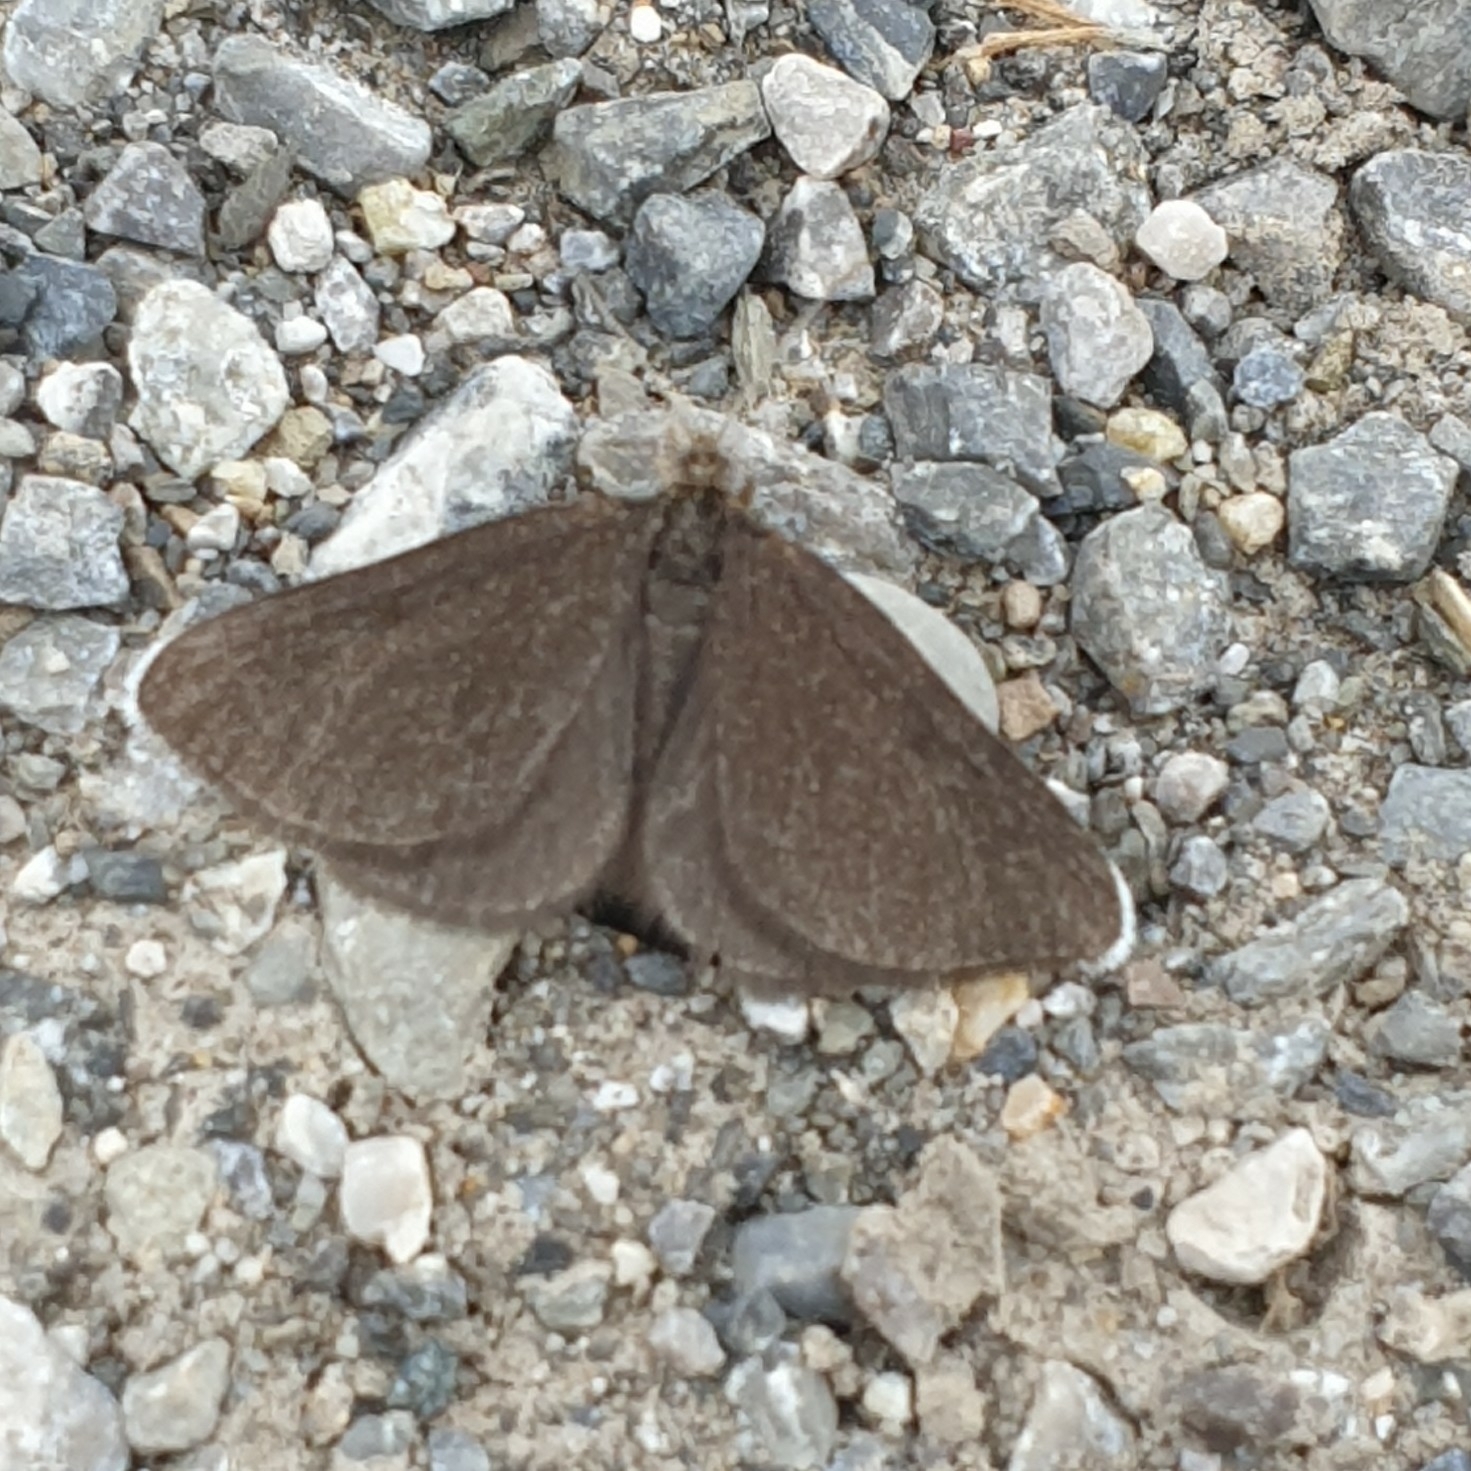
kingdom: Animalia
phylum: Arthropoda
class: Insecta
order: Lepidoptera
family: Geometridae
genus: Odezia
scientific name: Odezia atrata
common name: Chimney sweeper
